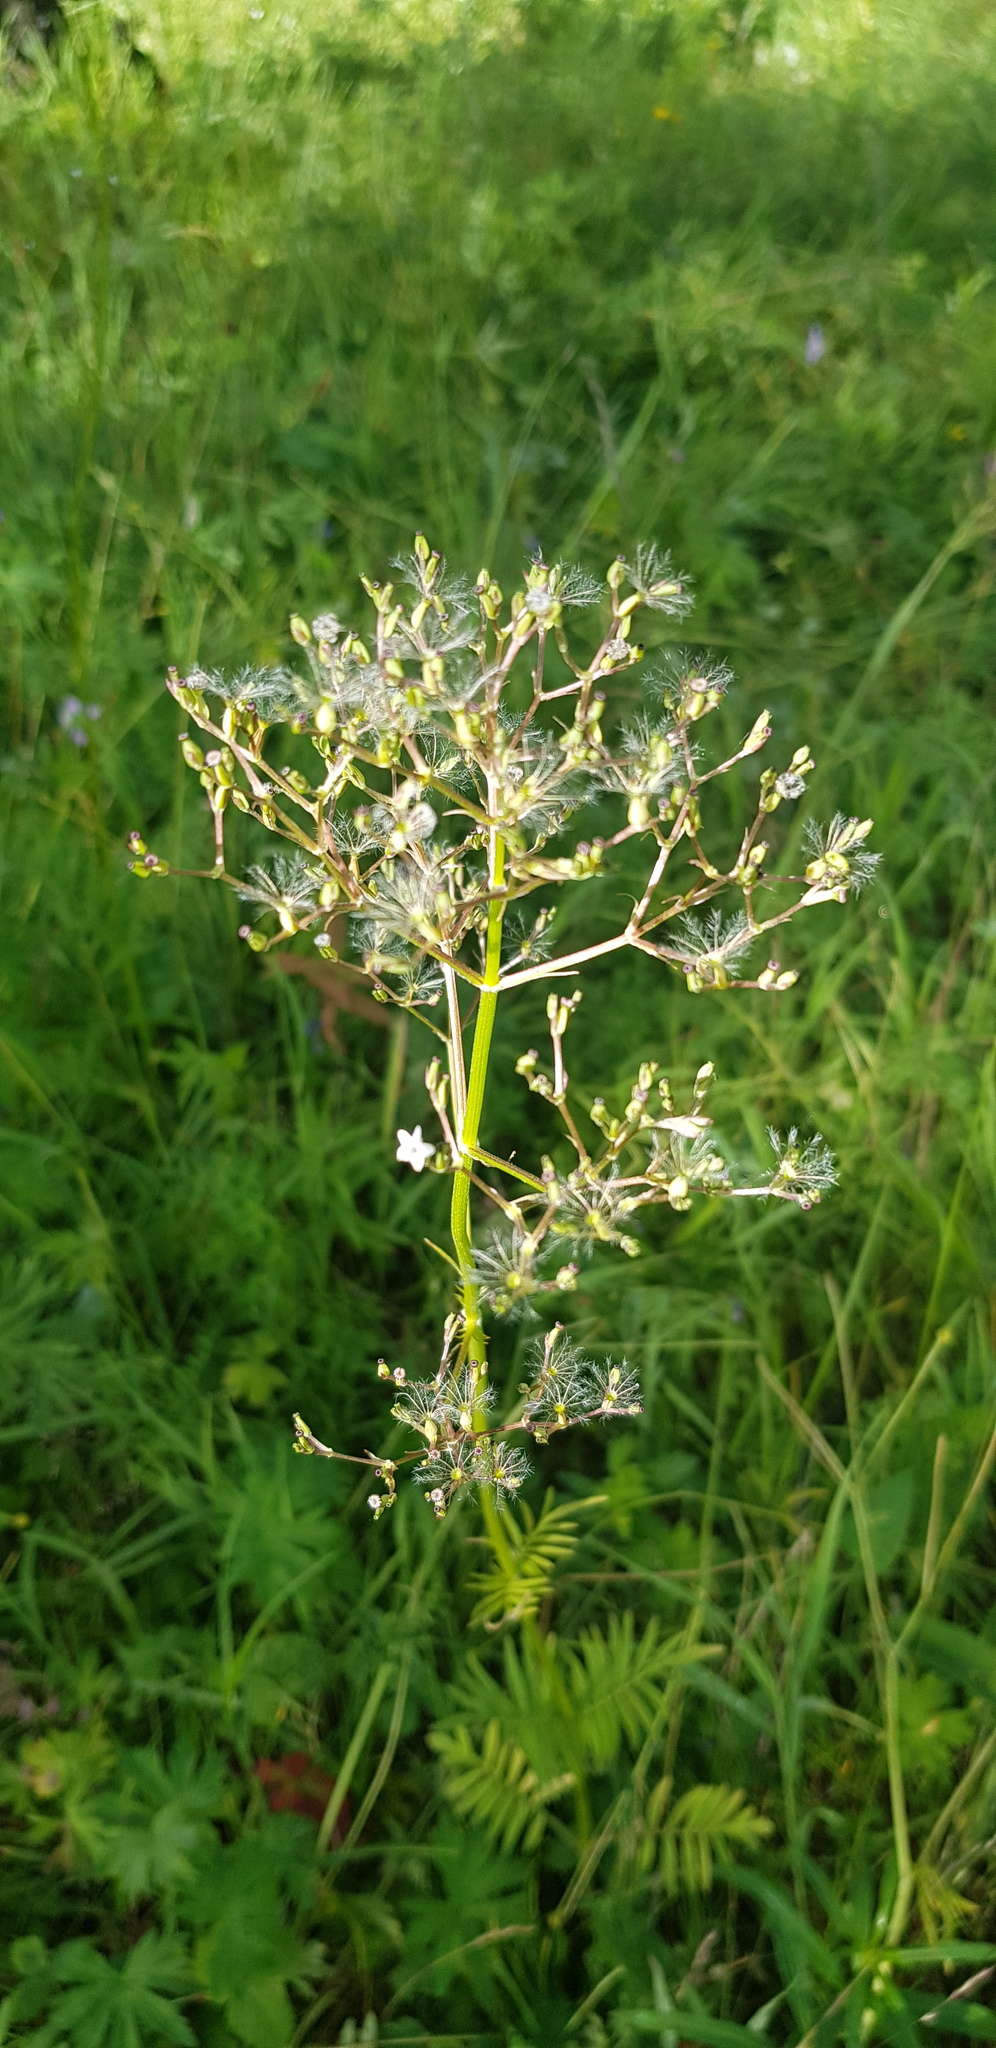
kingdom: Plantae
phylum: Tracheophyta
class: Magnoliopsida
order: Dipsacales
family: Caprifoliaceae
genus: Valeriana
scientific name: Valeriana officinalis
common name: Common valerian
